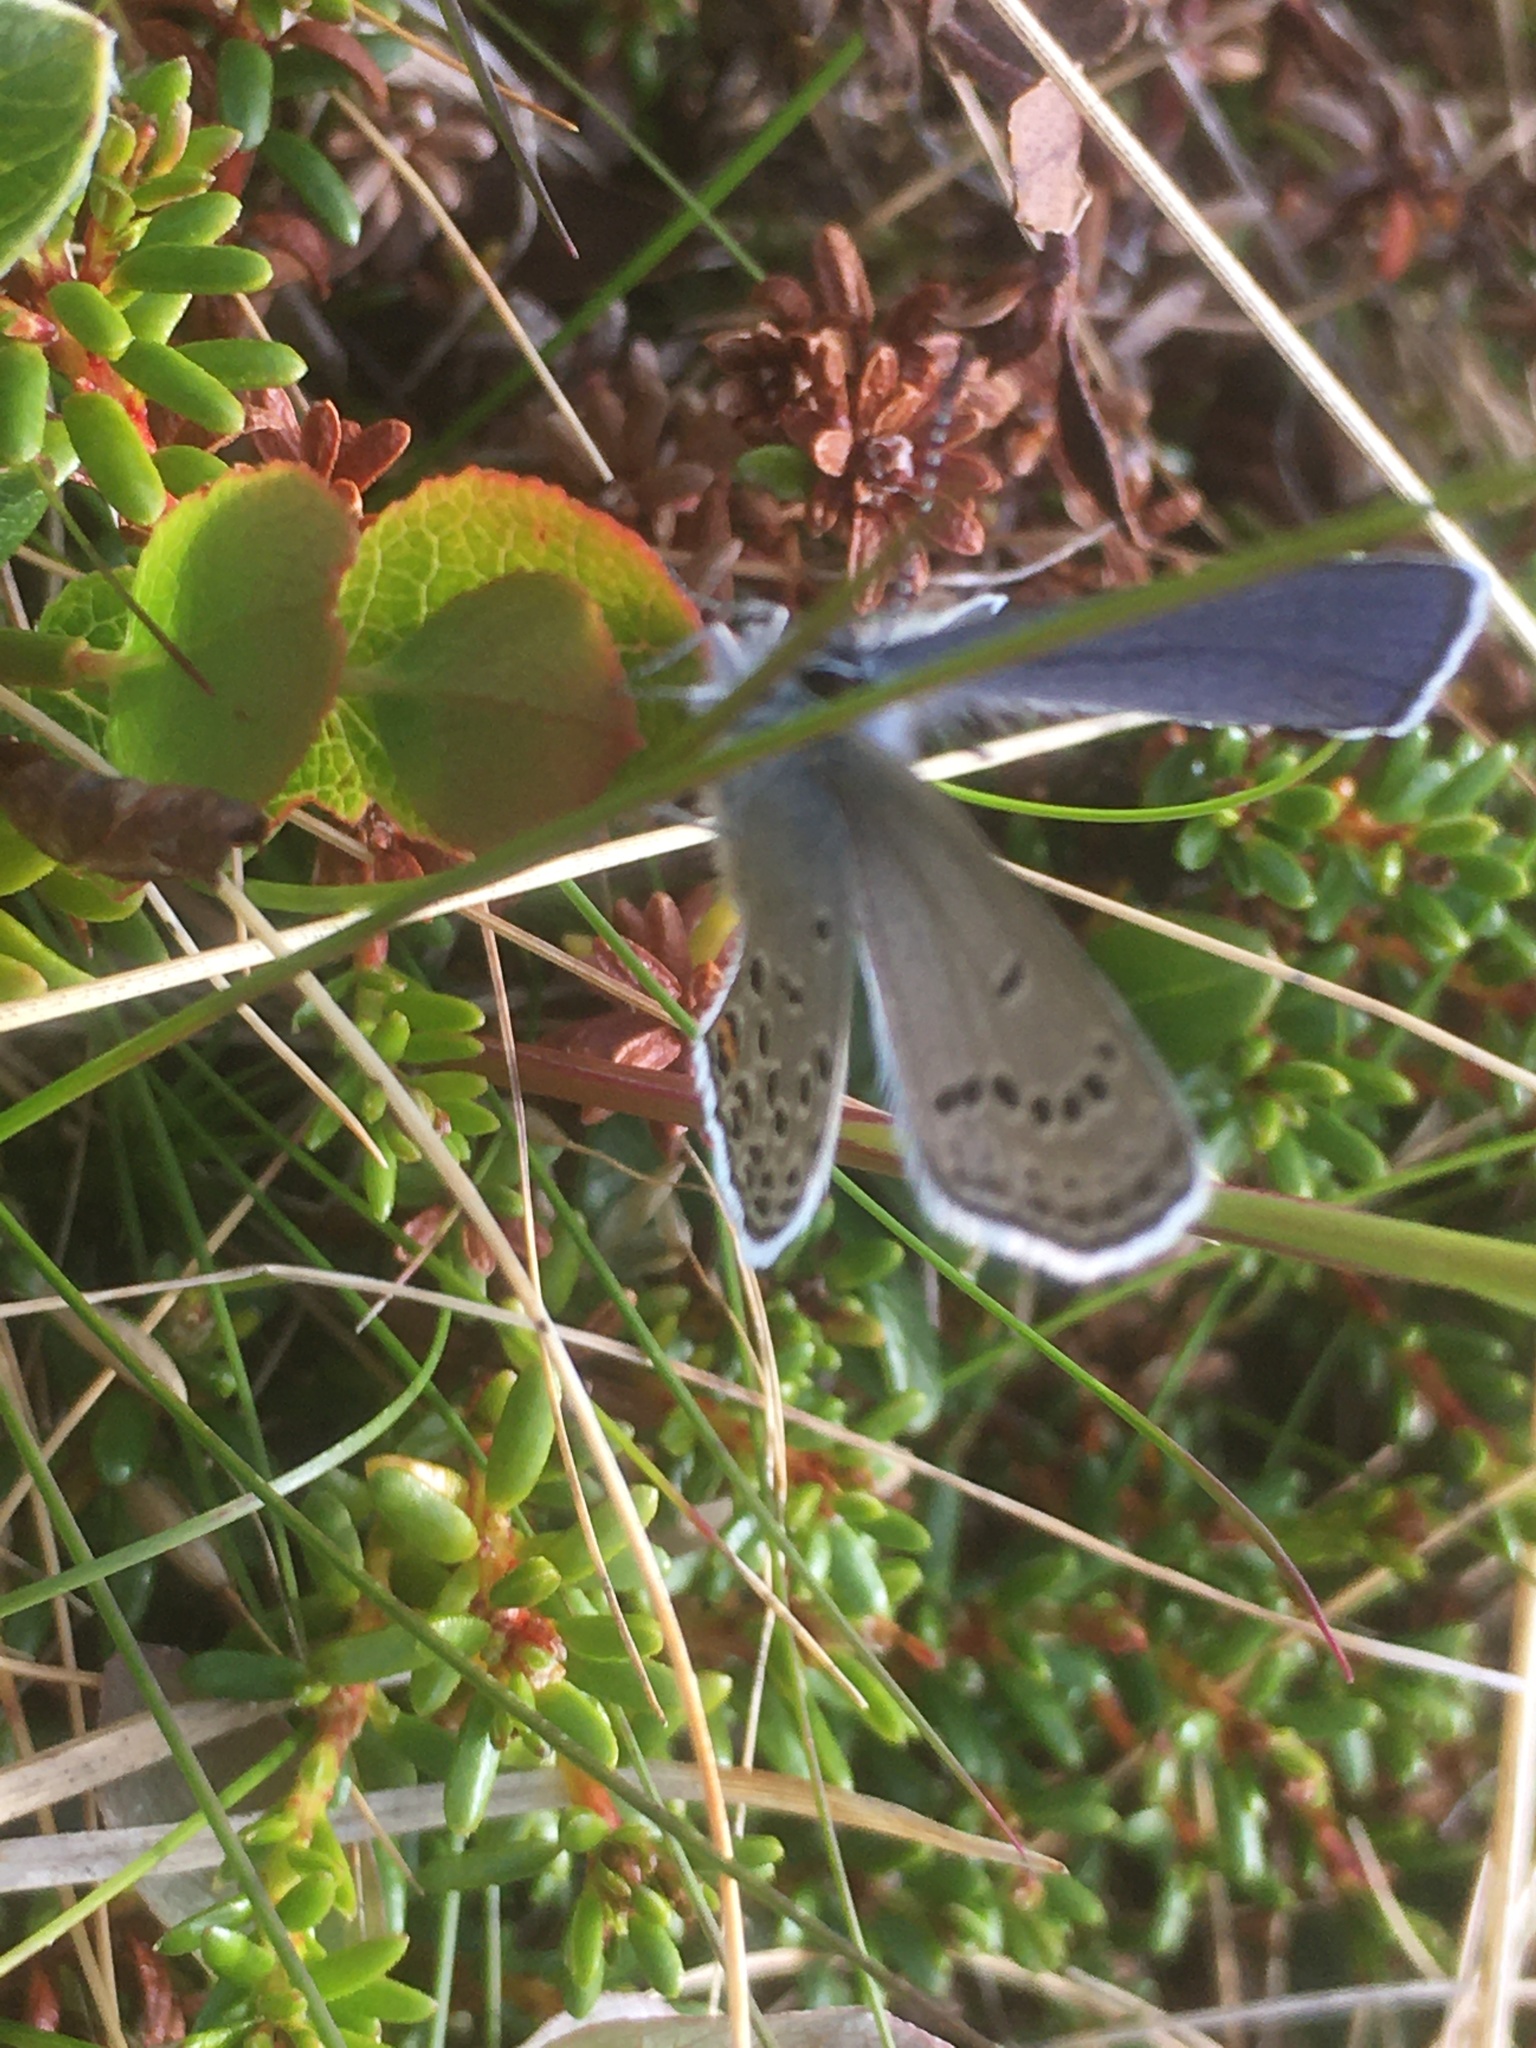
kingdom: Animalia
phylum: Arthropoda
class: Insecta
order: Lepidoptera
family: Lycaenidae
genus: Vacciniina
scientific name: Vacciniina optilete
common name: Cranberry blue
